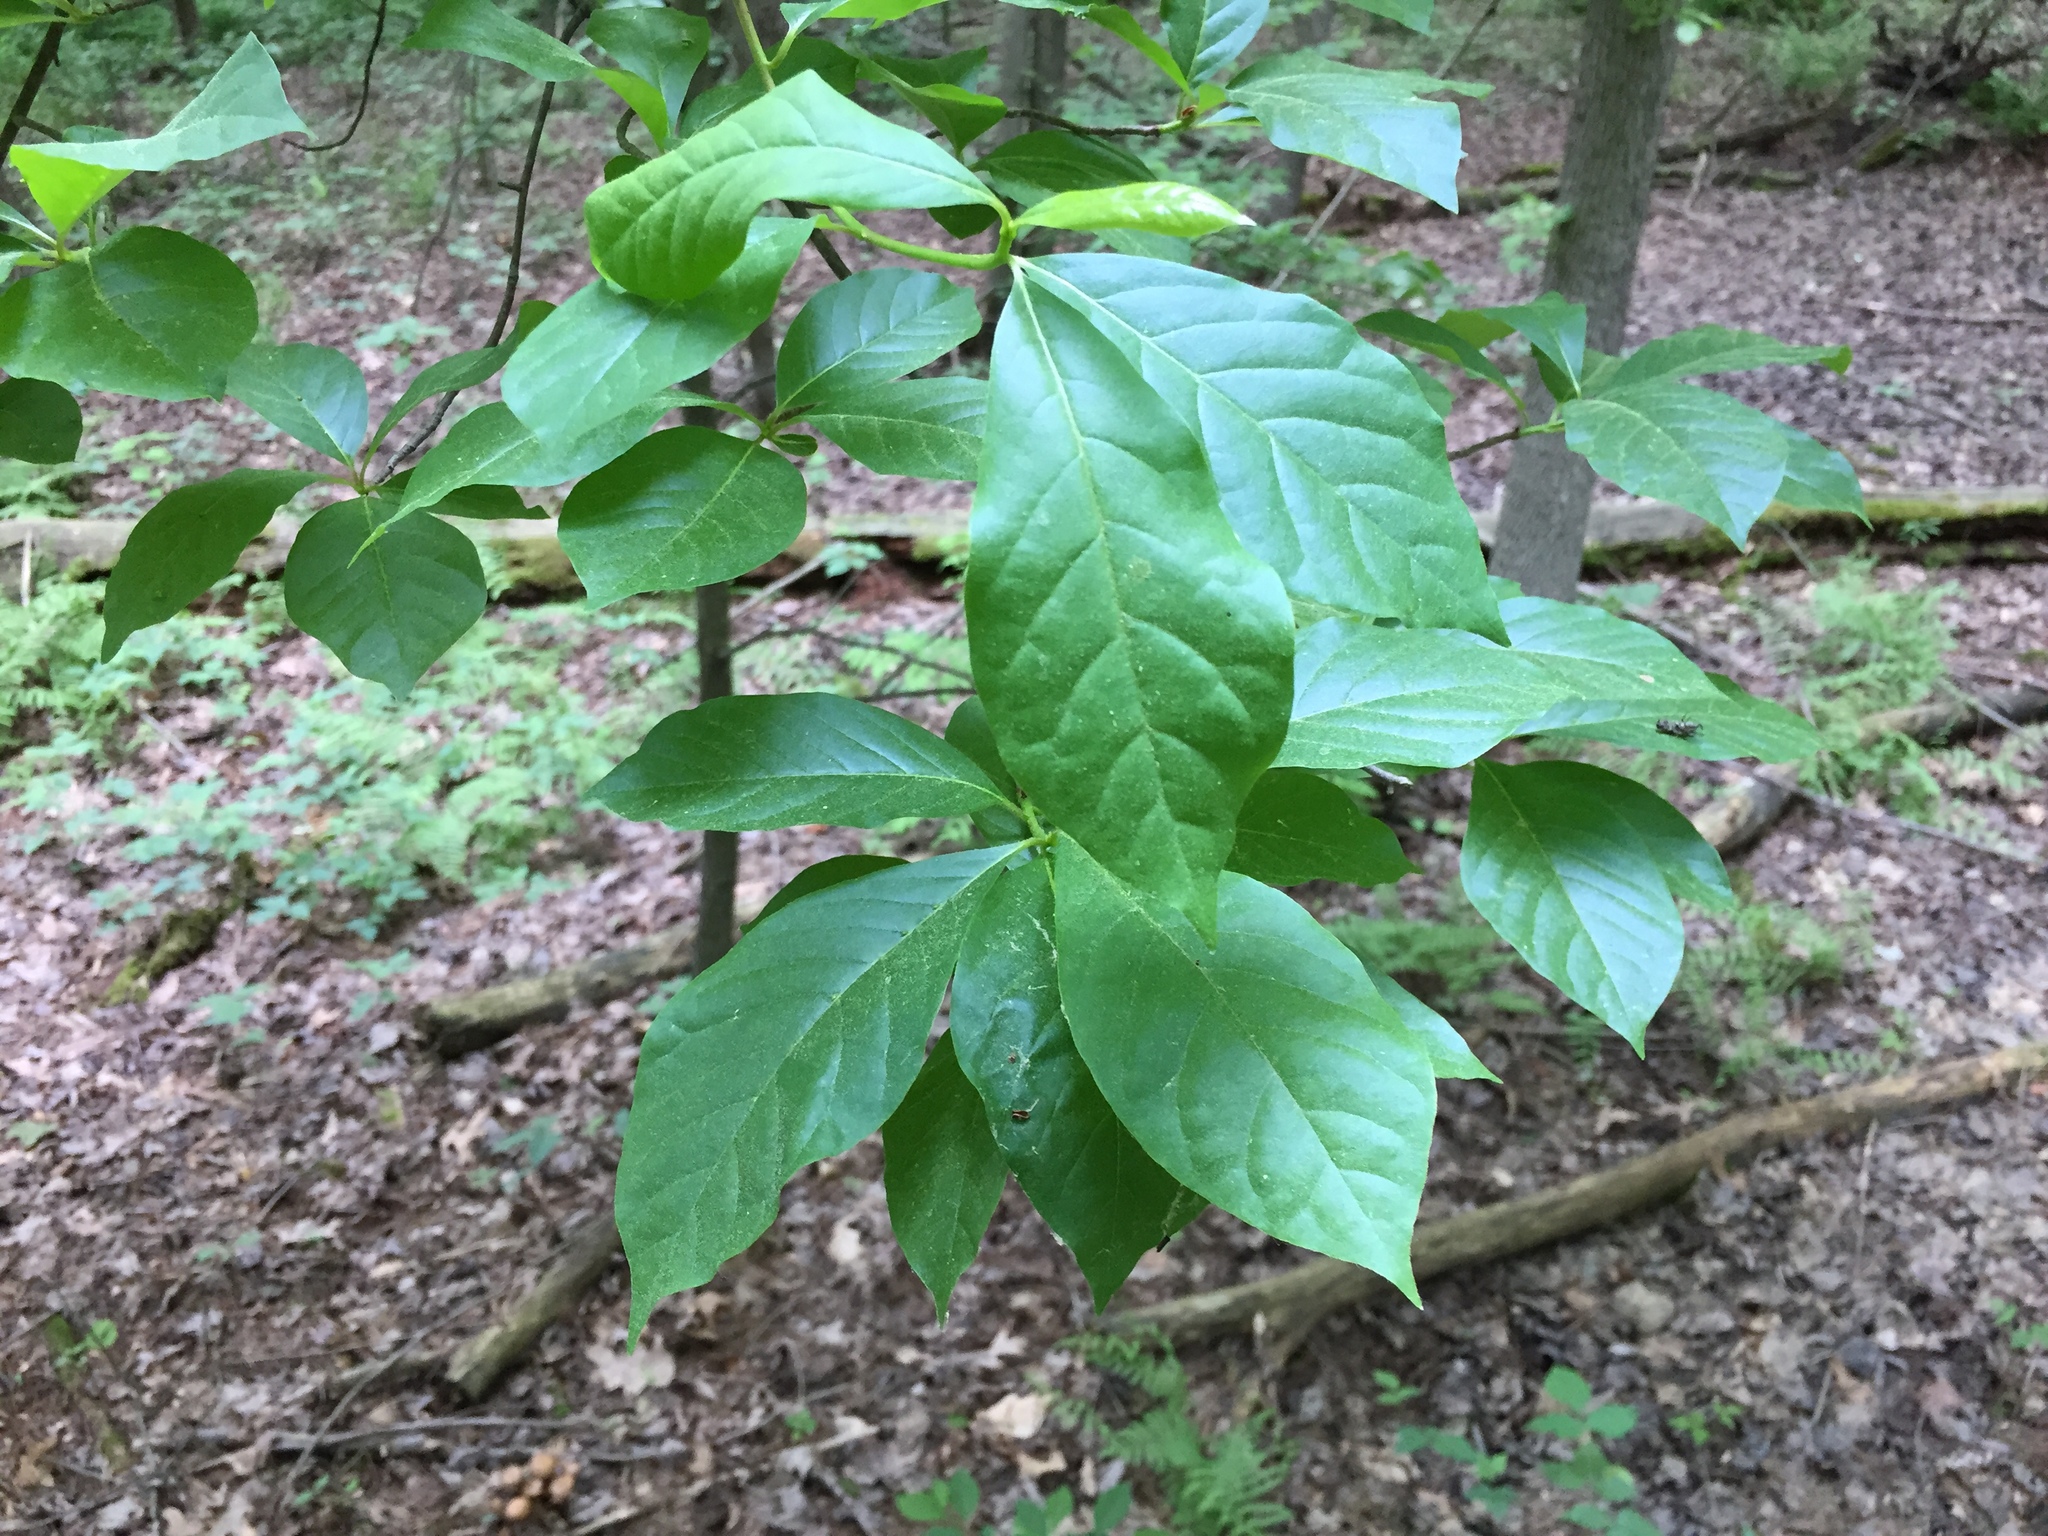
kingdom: Plantae
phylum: Tracheophyta
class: Magnoliopsida
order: Cornales
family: Nyssaceae
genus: Nyssa
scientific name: Nyssa sylvatica
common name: Black tupelo
